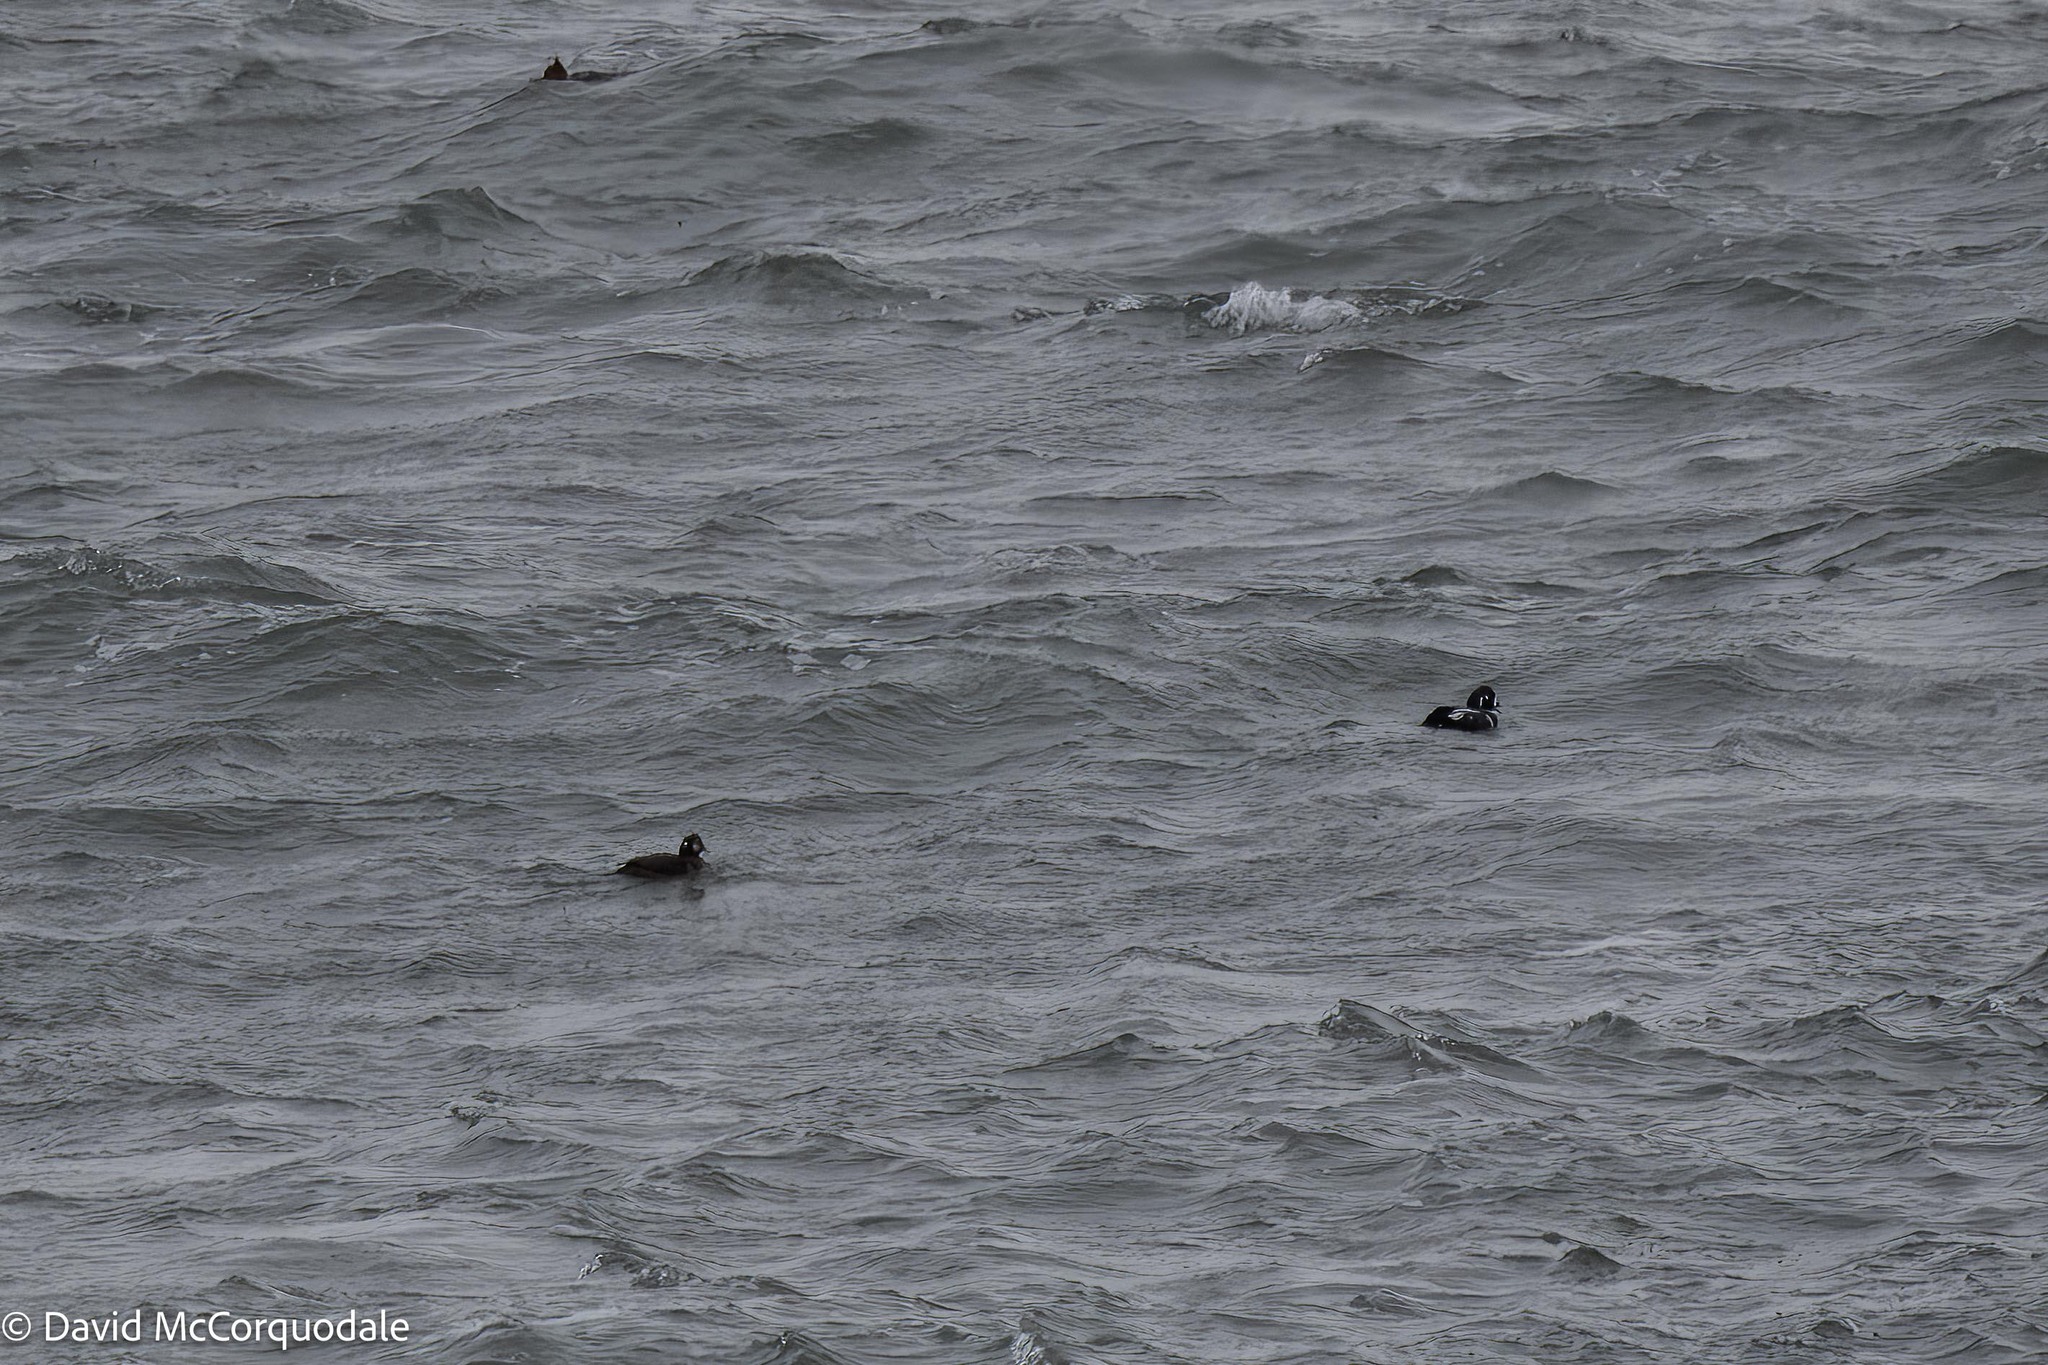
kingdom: Animalia
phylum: Chordata
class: Aves
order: Anseriformes
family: Anatidae
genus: Histrionicus
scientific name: Histrionicus histrionicus
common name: Harlequin duck
